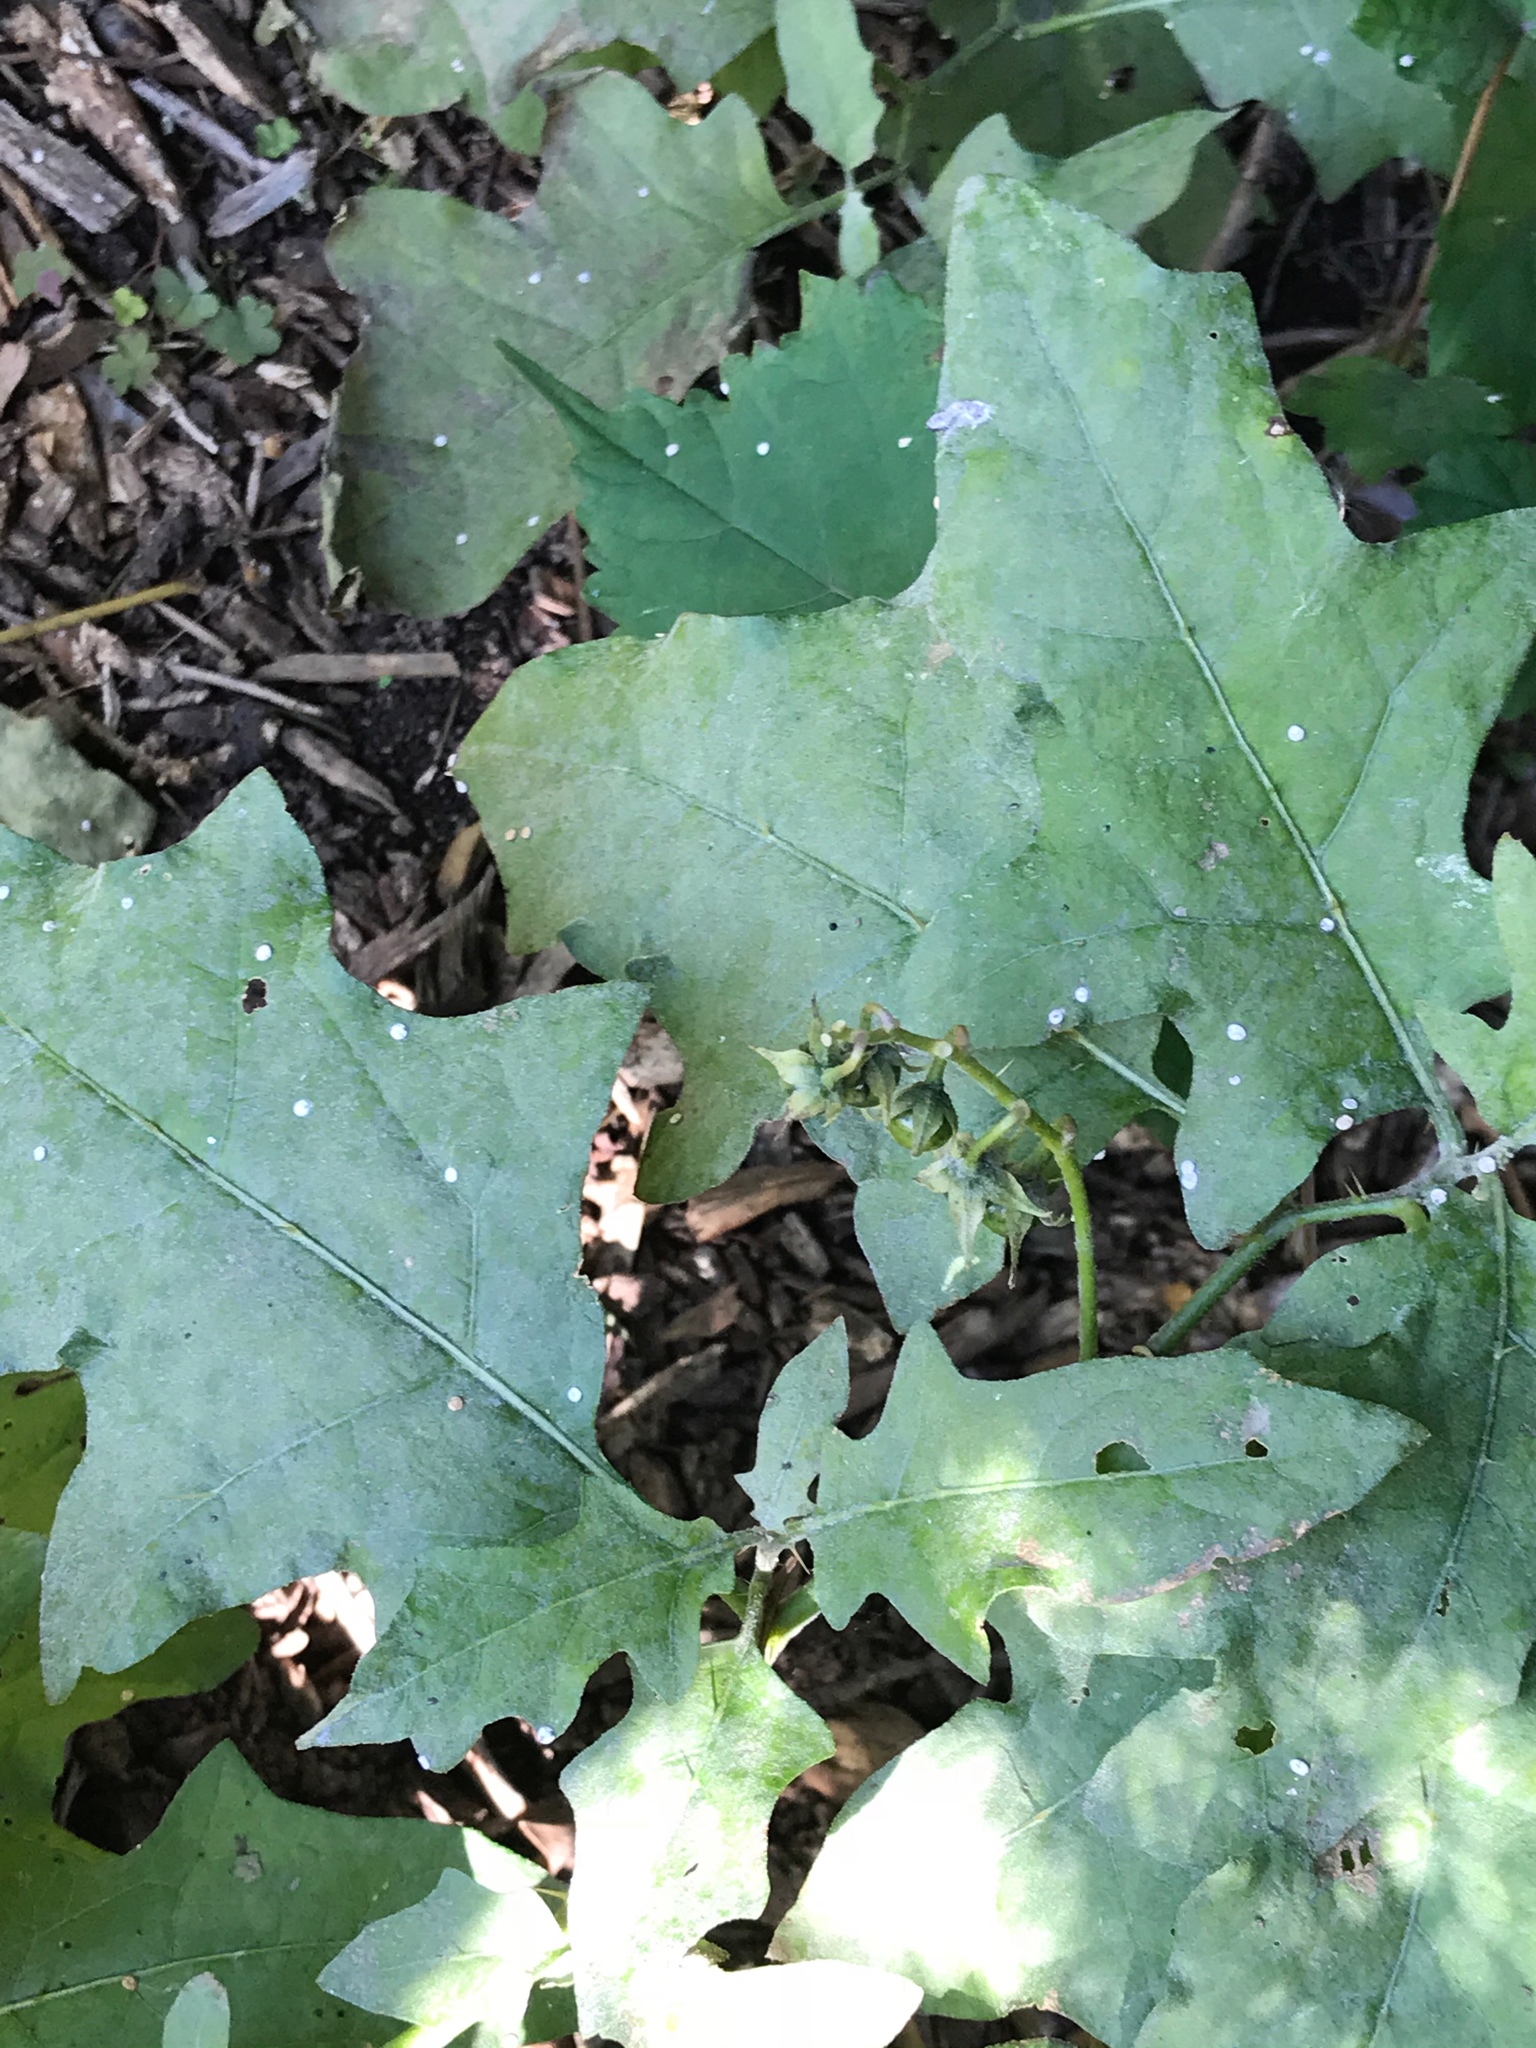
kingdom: Plantae
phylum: Tracheophyta
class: Magnoliopsida
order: Solanales
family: Solanaceae
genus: Solanum
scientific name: Solanum carolinense
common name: Horse-nettle
